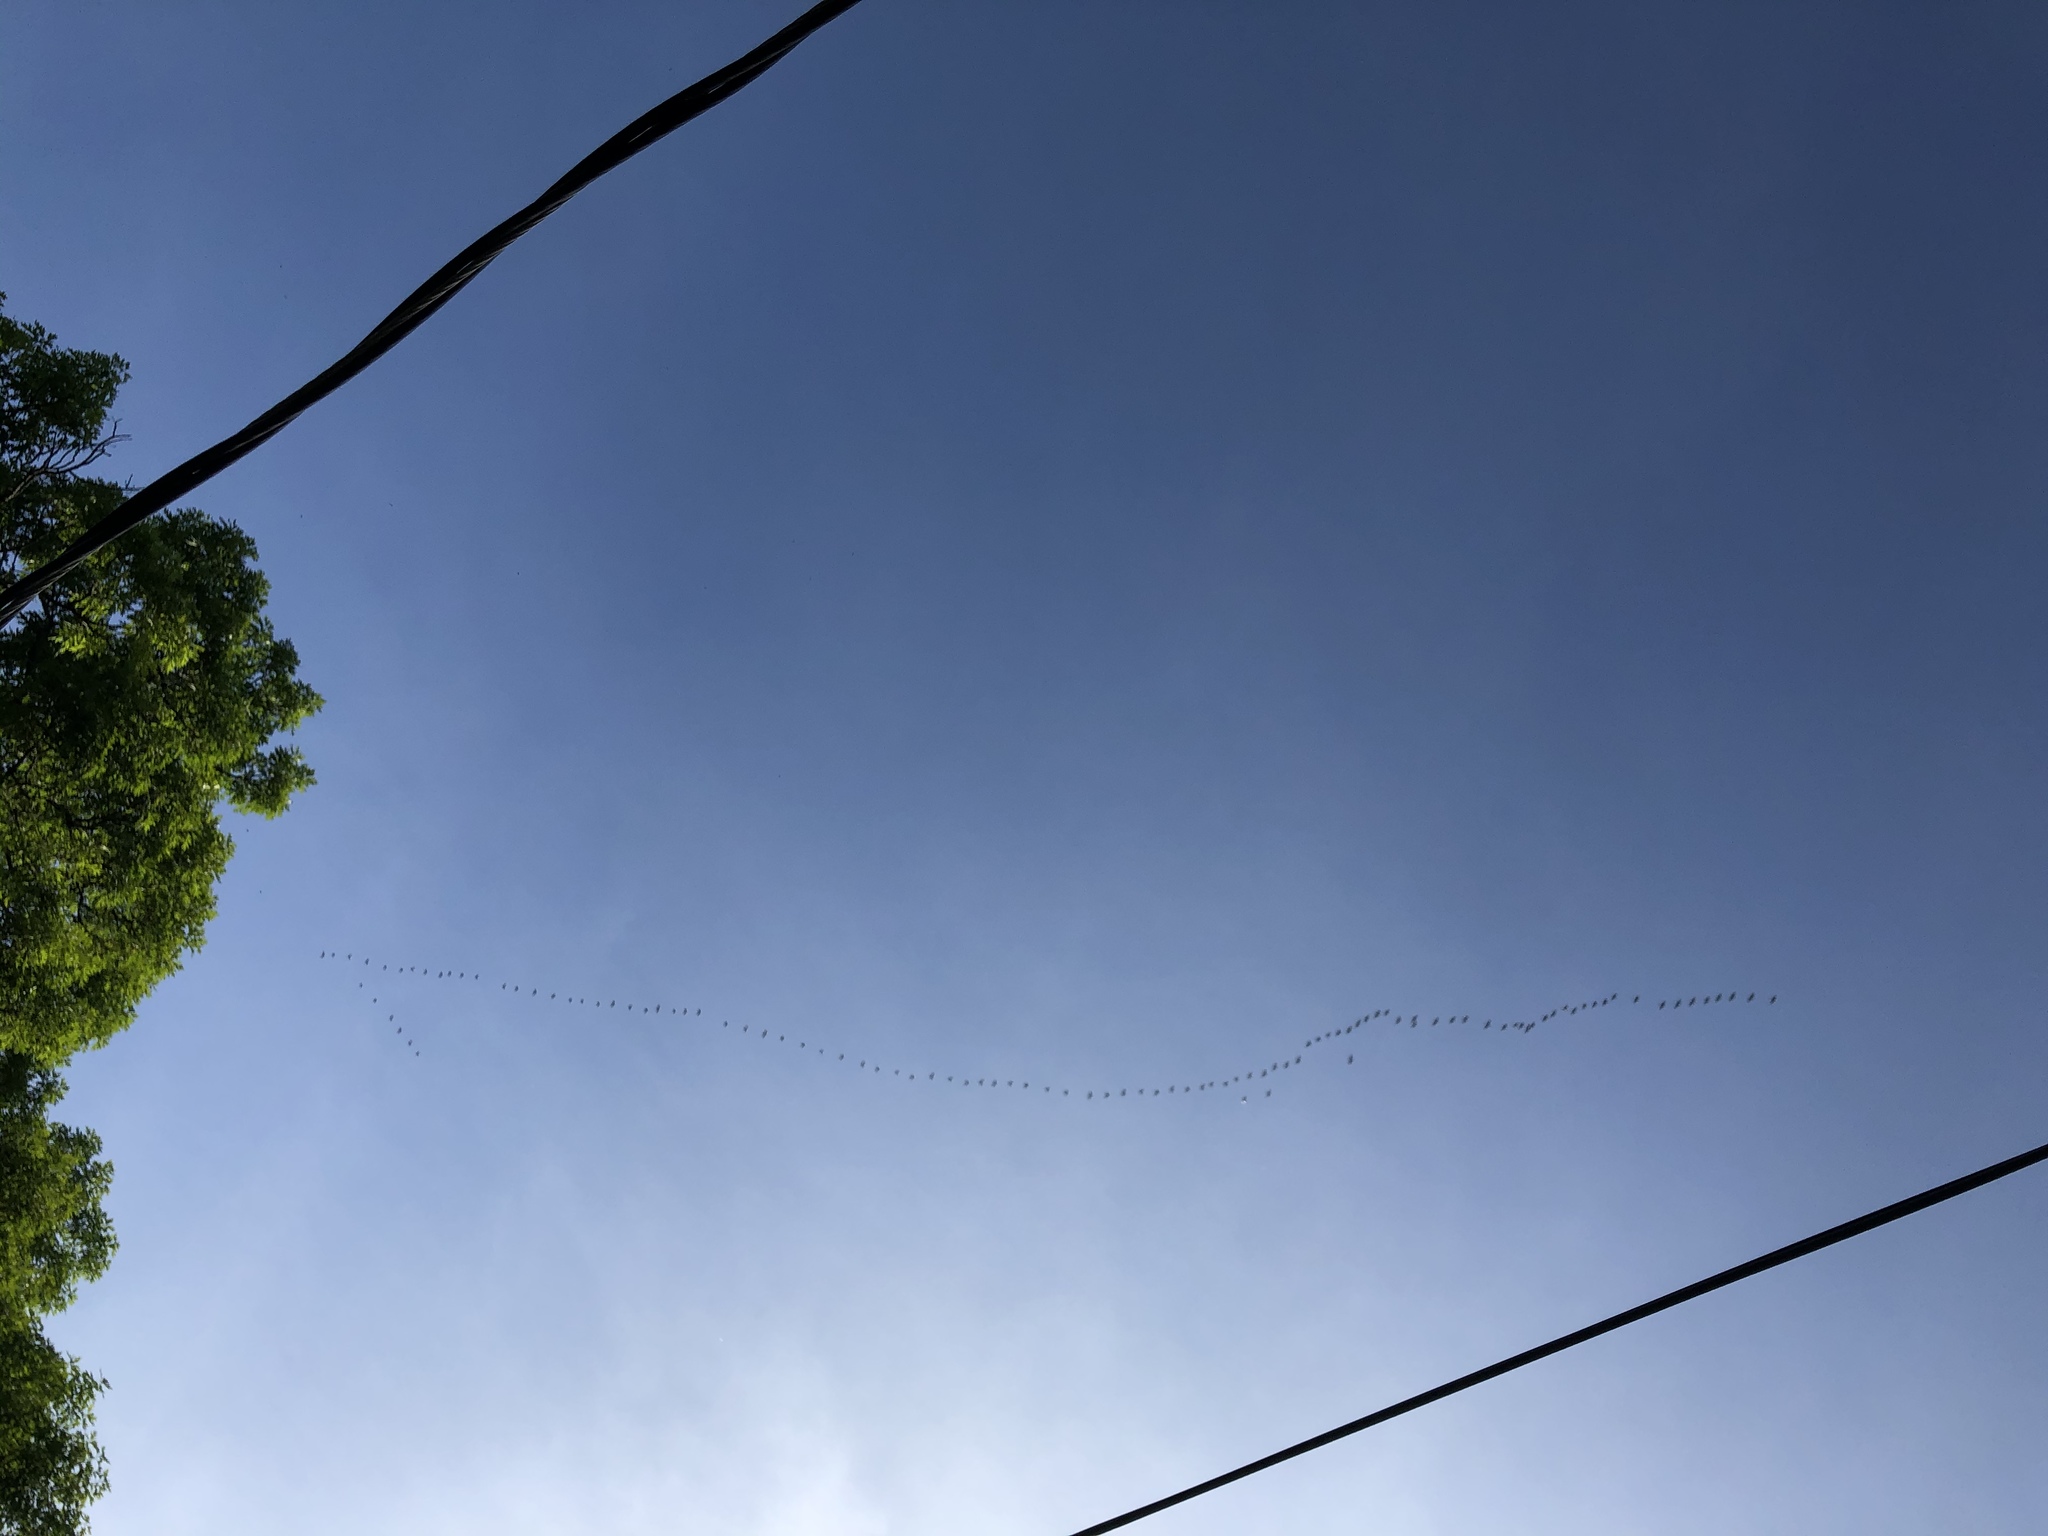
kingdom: Animalia
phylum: Chordata
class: Aves
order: Anseriformes
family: Anatidae
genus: Branta
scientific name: Branta canadensis
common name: Canada goose
